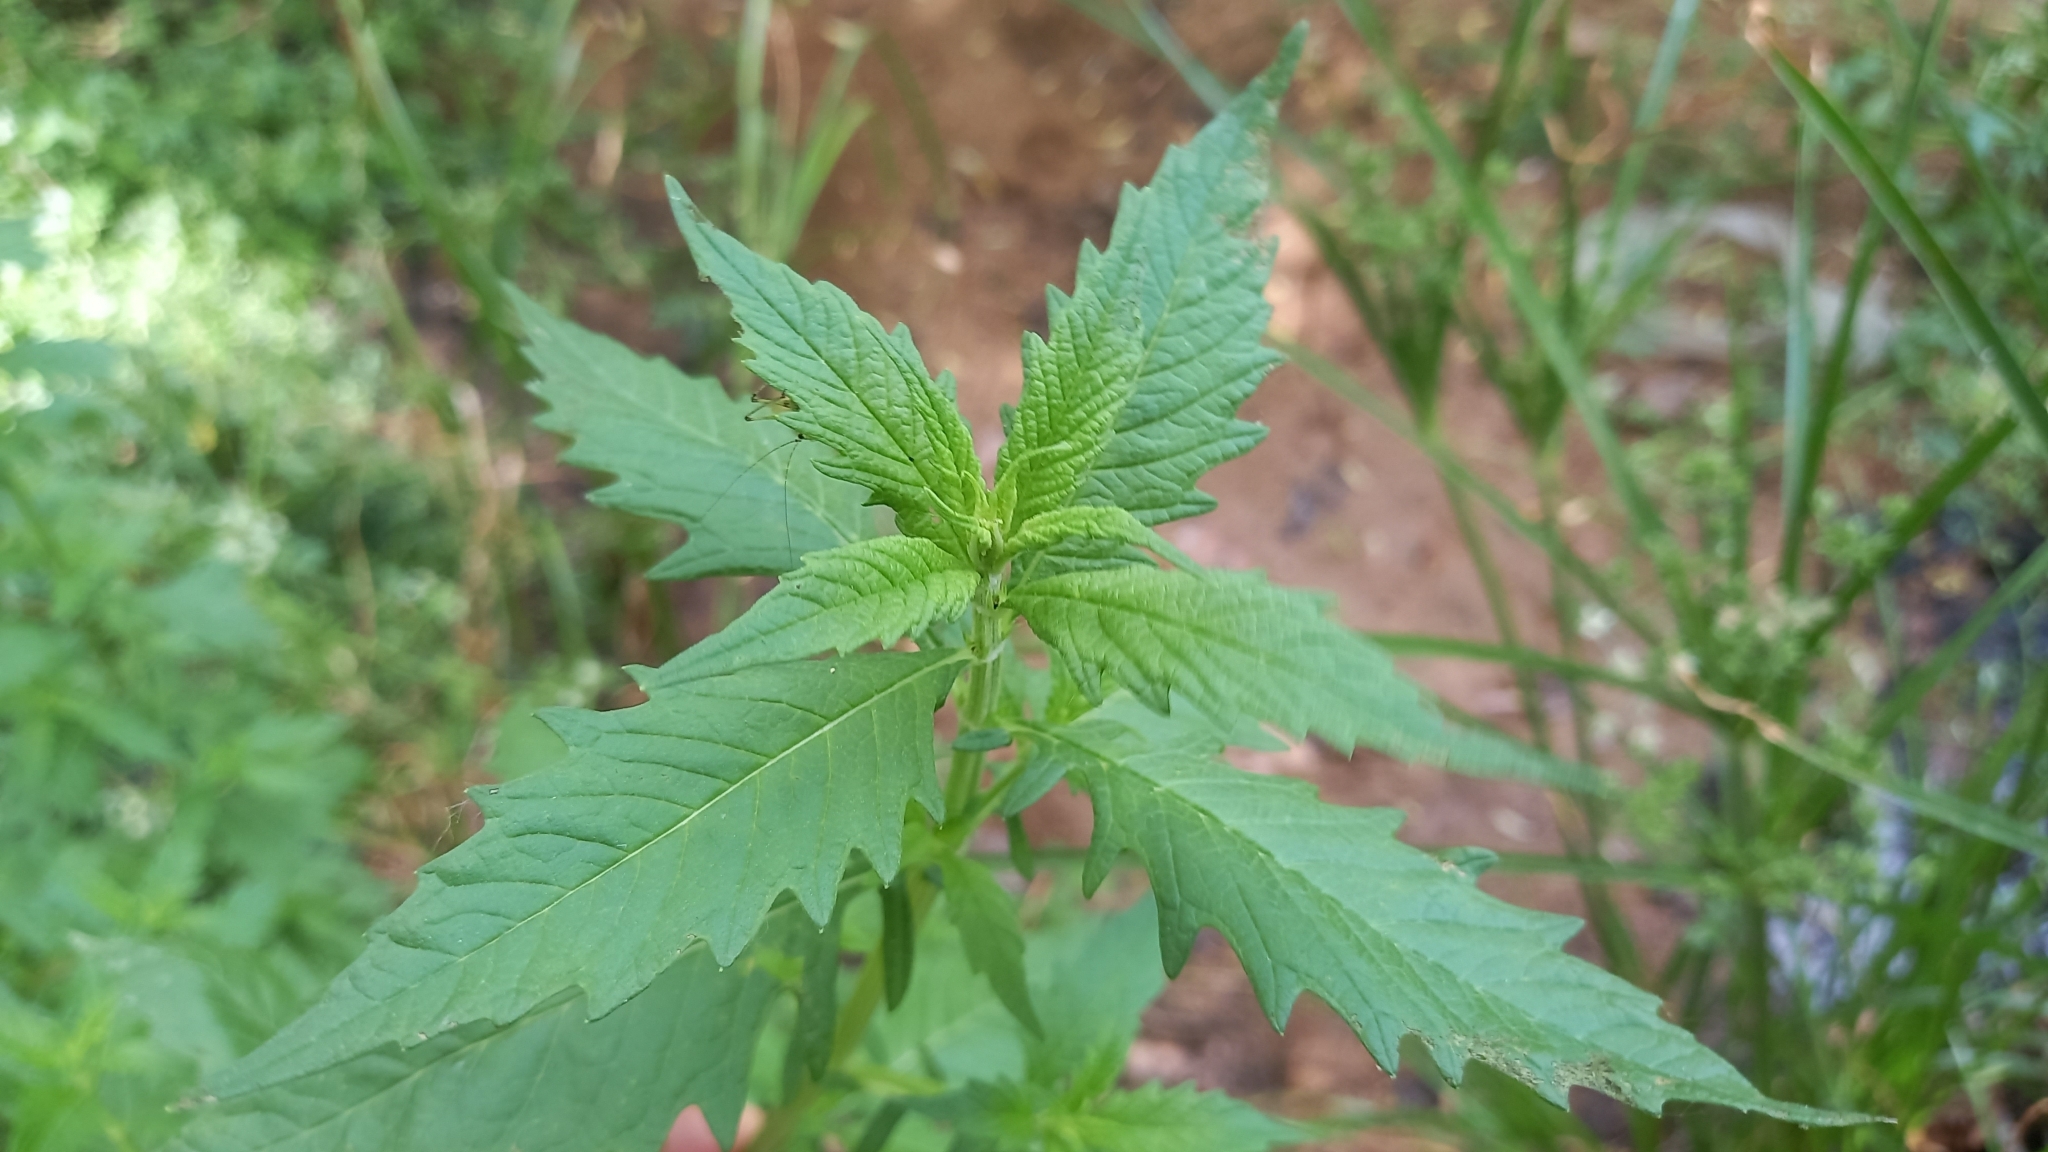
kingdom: Plantae
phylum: Tracheophyta
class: Magnoliopsida
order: Lamiales
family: Lamiaceae
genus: Lycopus
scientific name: Lycopus europaeus
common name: European bugleweed
